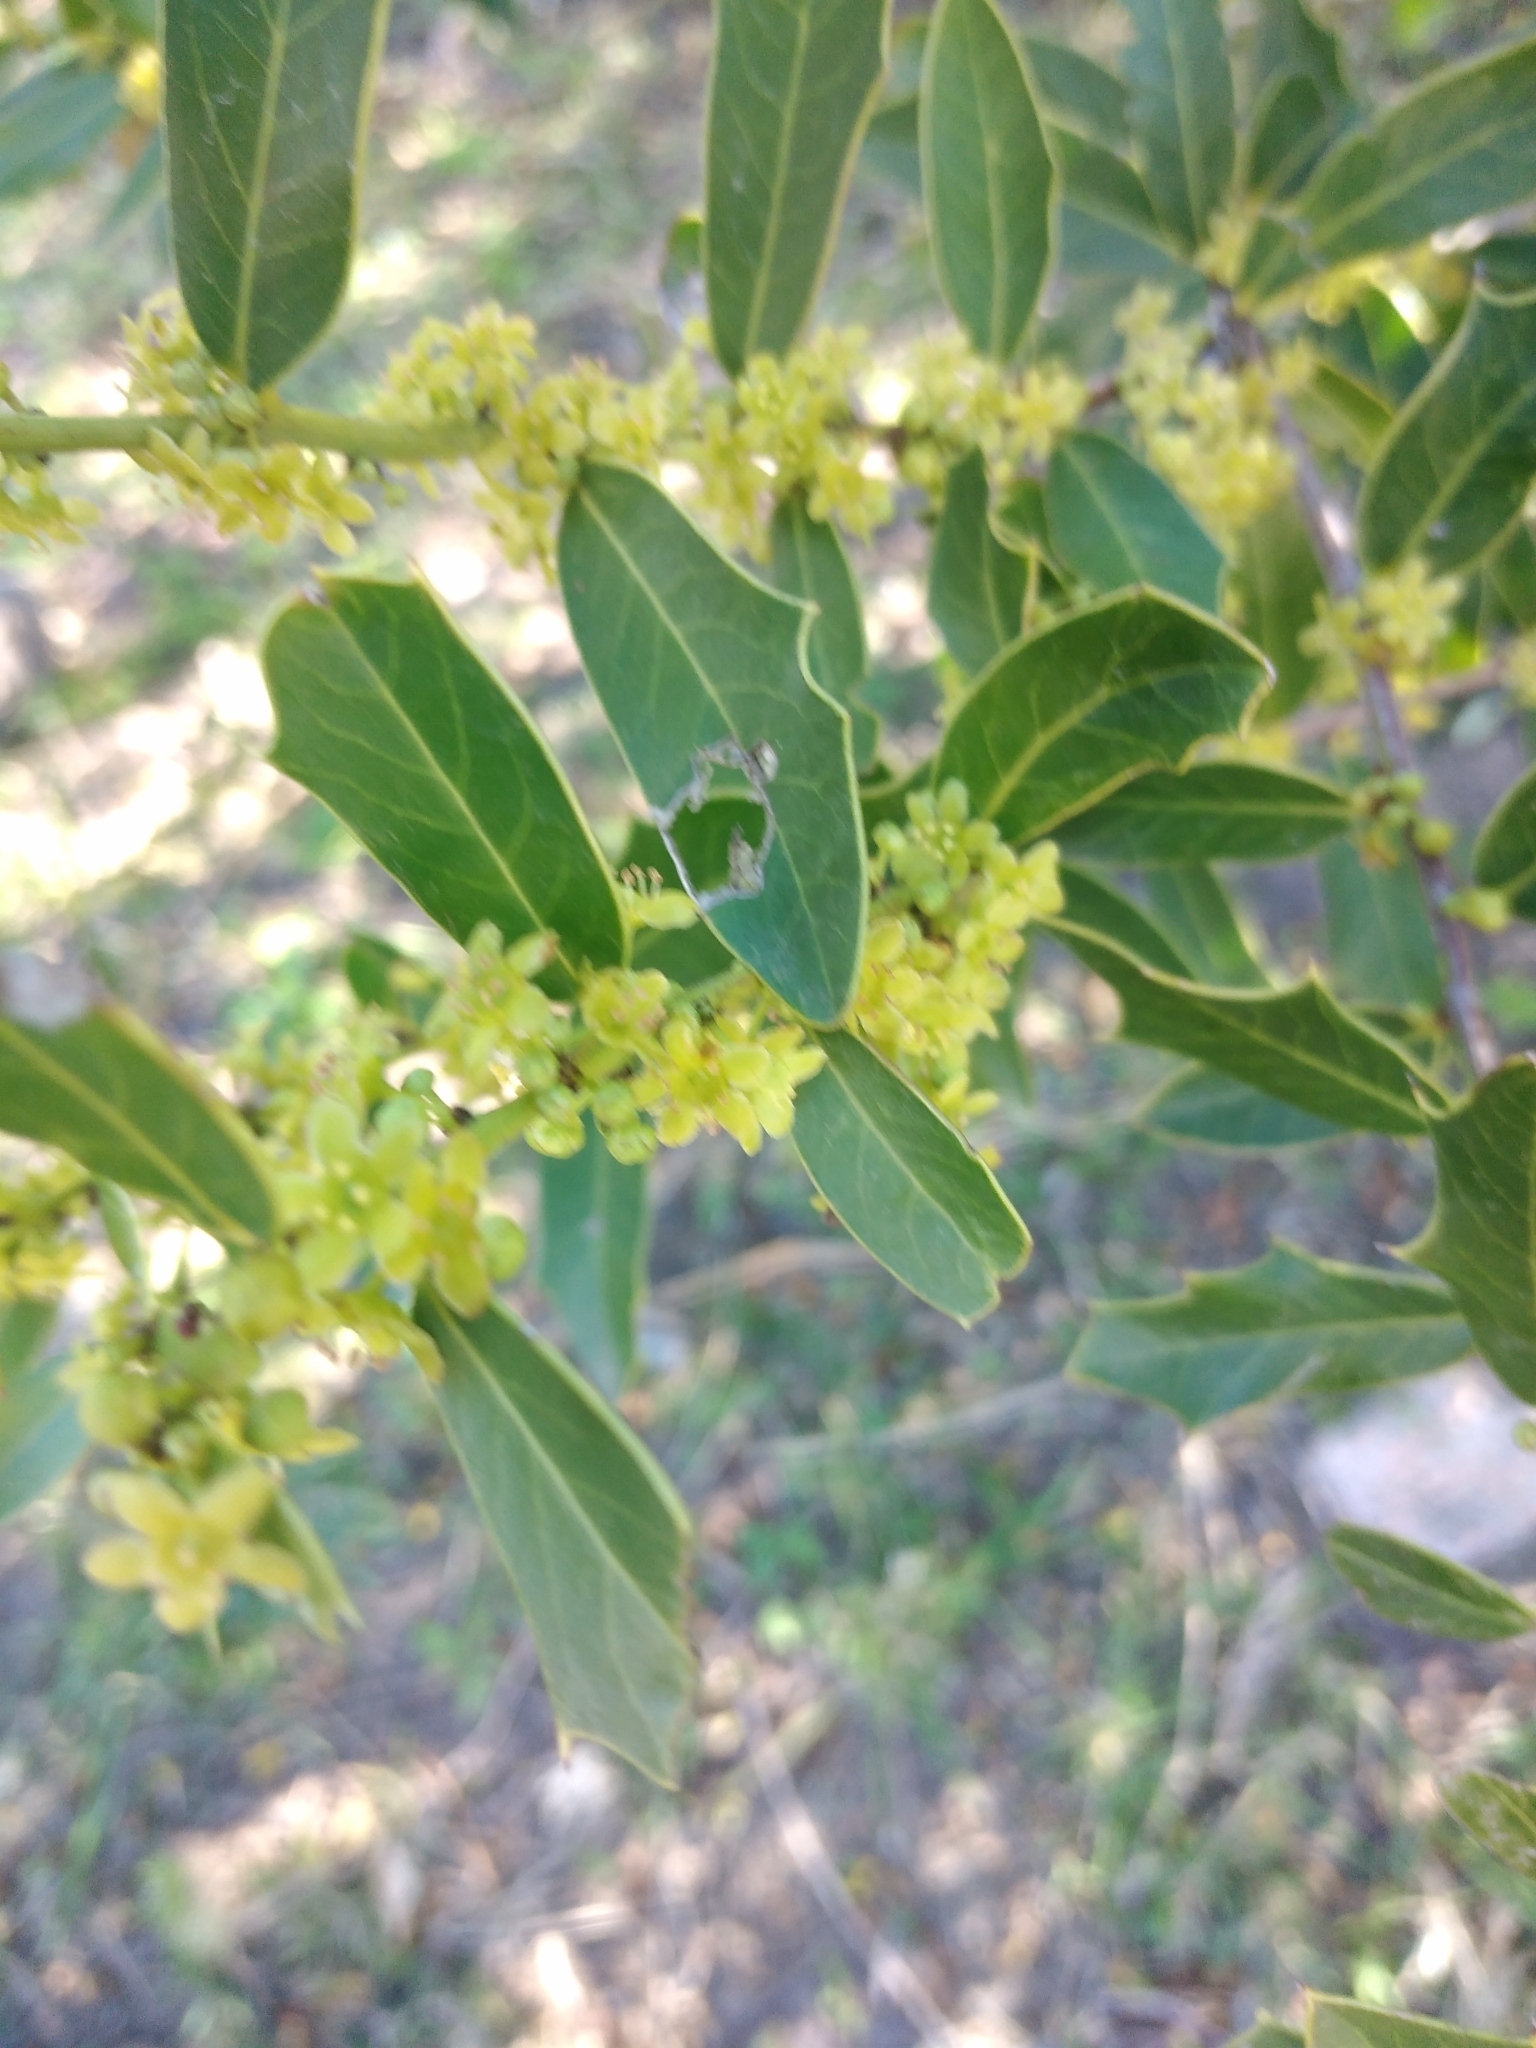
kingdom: Plantae
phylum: Tracheophyta
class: Magnoliopsida
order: Celastrales
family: Celastraceae
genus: Monteverdia
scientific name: Monteverdia
